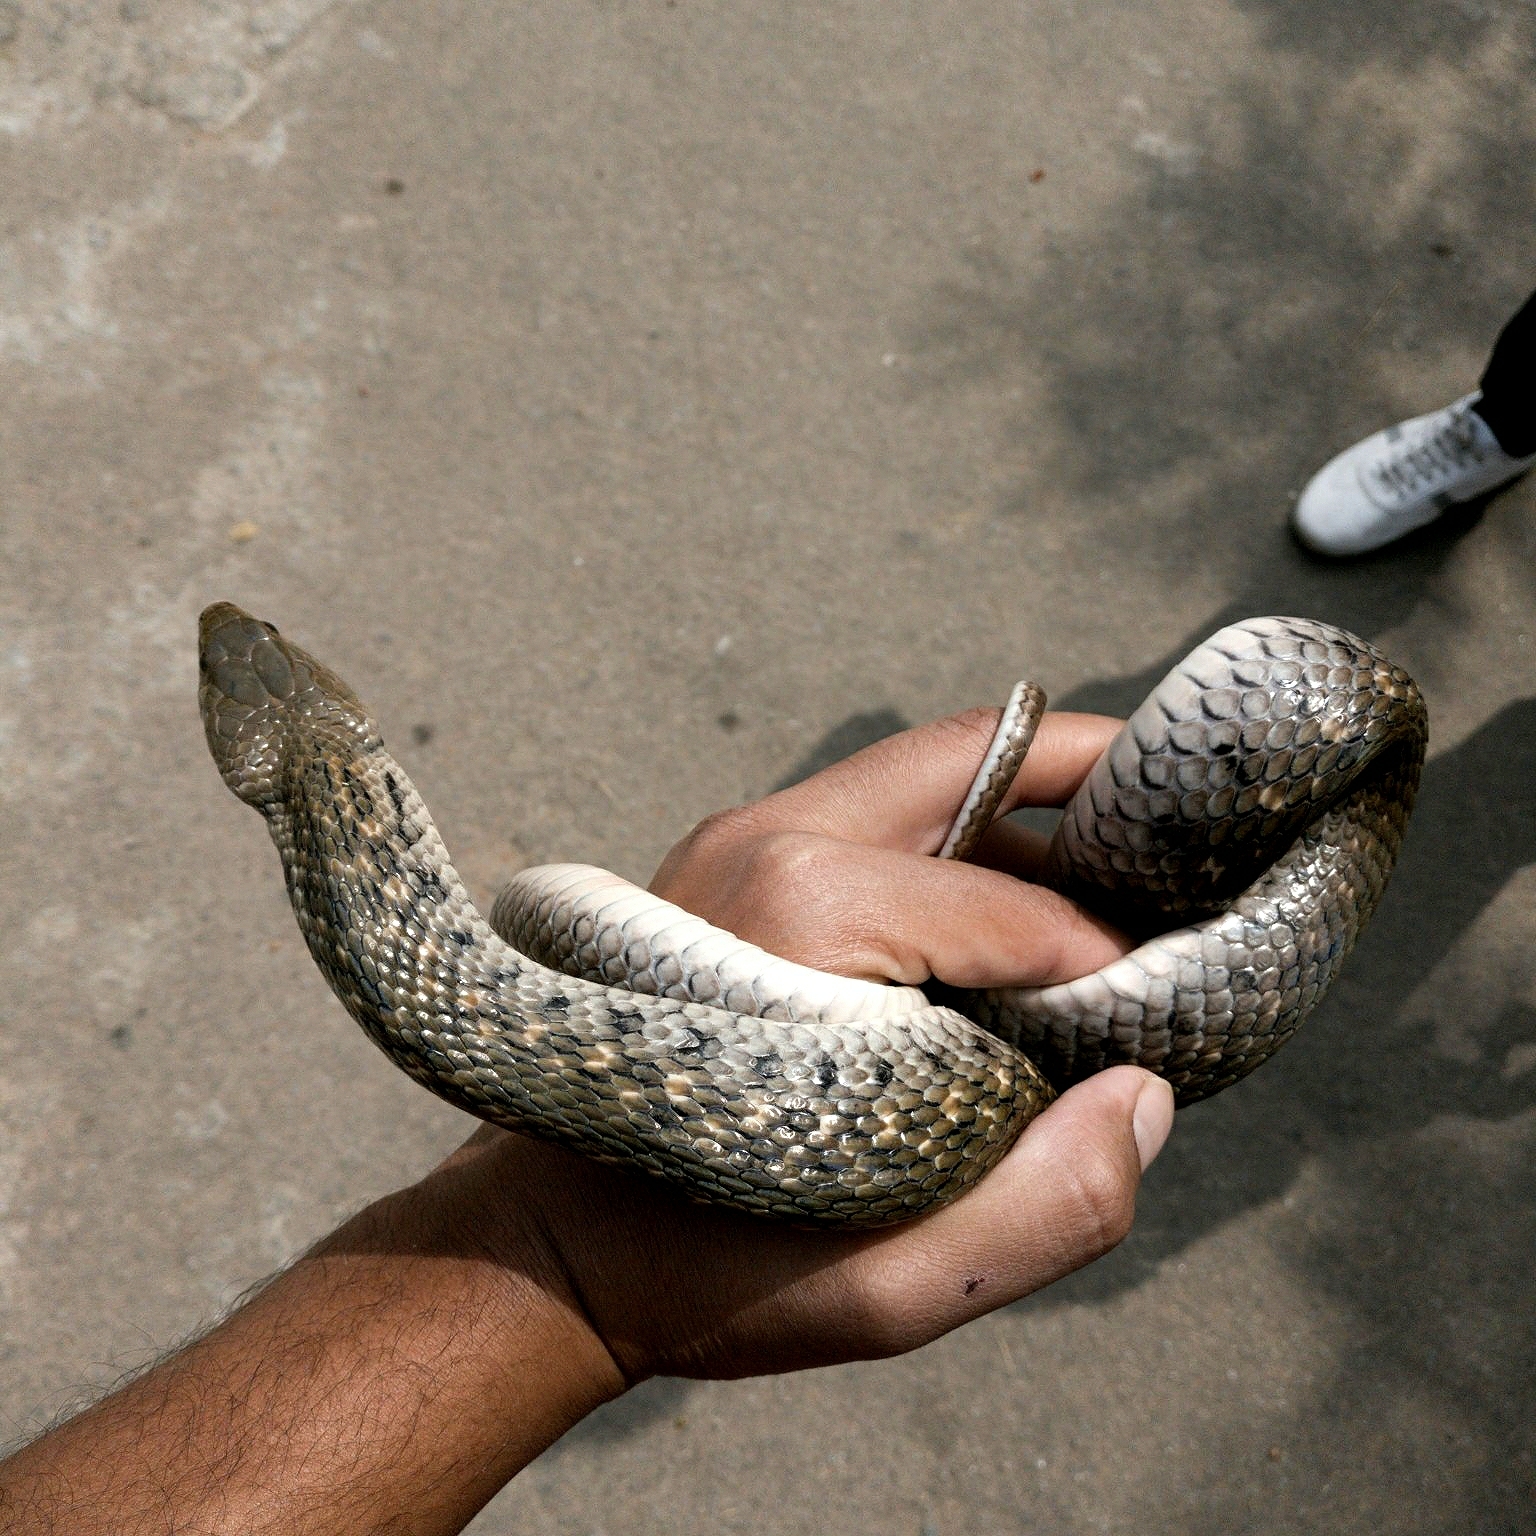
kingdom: Animalia
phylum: Chordata
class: Squamata
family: Colubridae
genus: Fowlea
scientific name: Fowlea piscator
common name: Asiatic water snake
